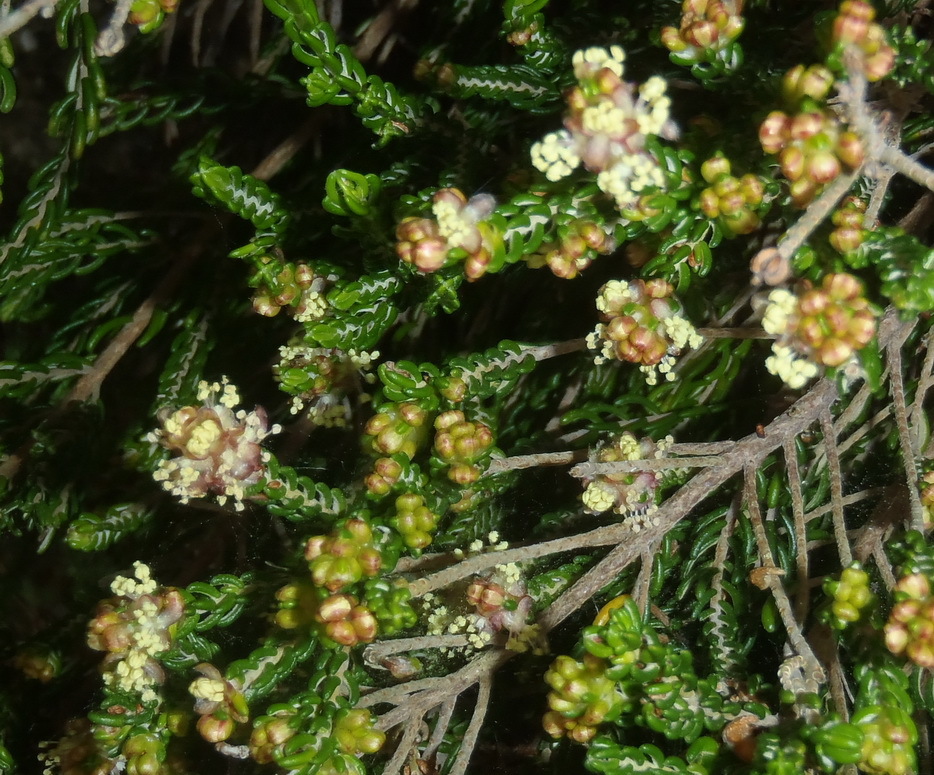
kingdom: Plantae
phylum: Tracheophyta
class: Magnoliopsida
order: Malvales
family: Thymelaeaceae
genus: Passerina
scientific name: Passerina galpinii
